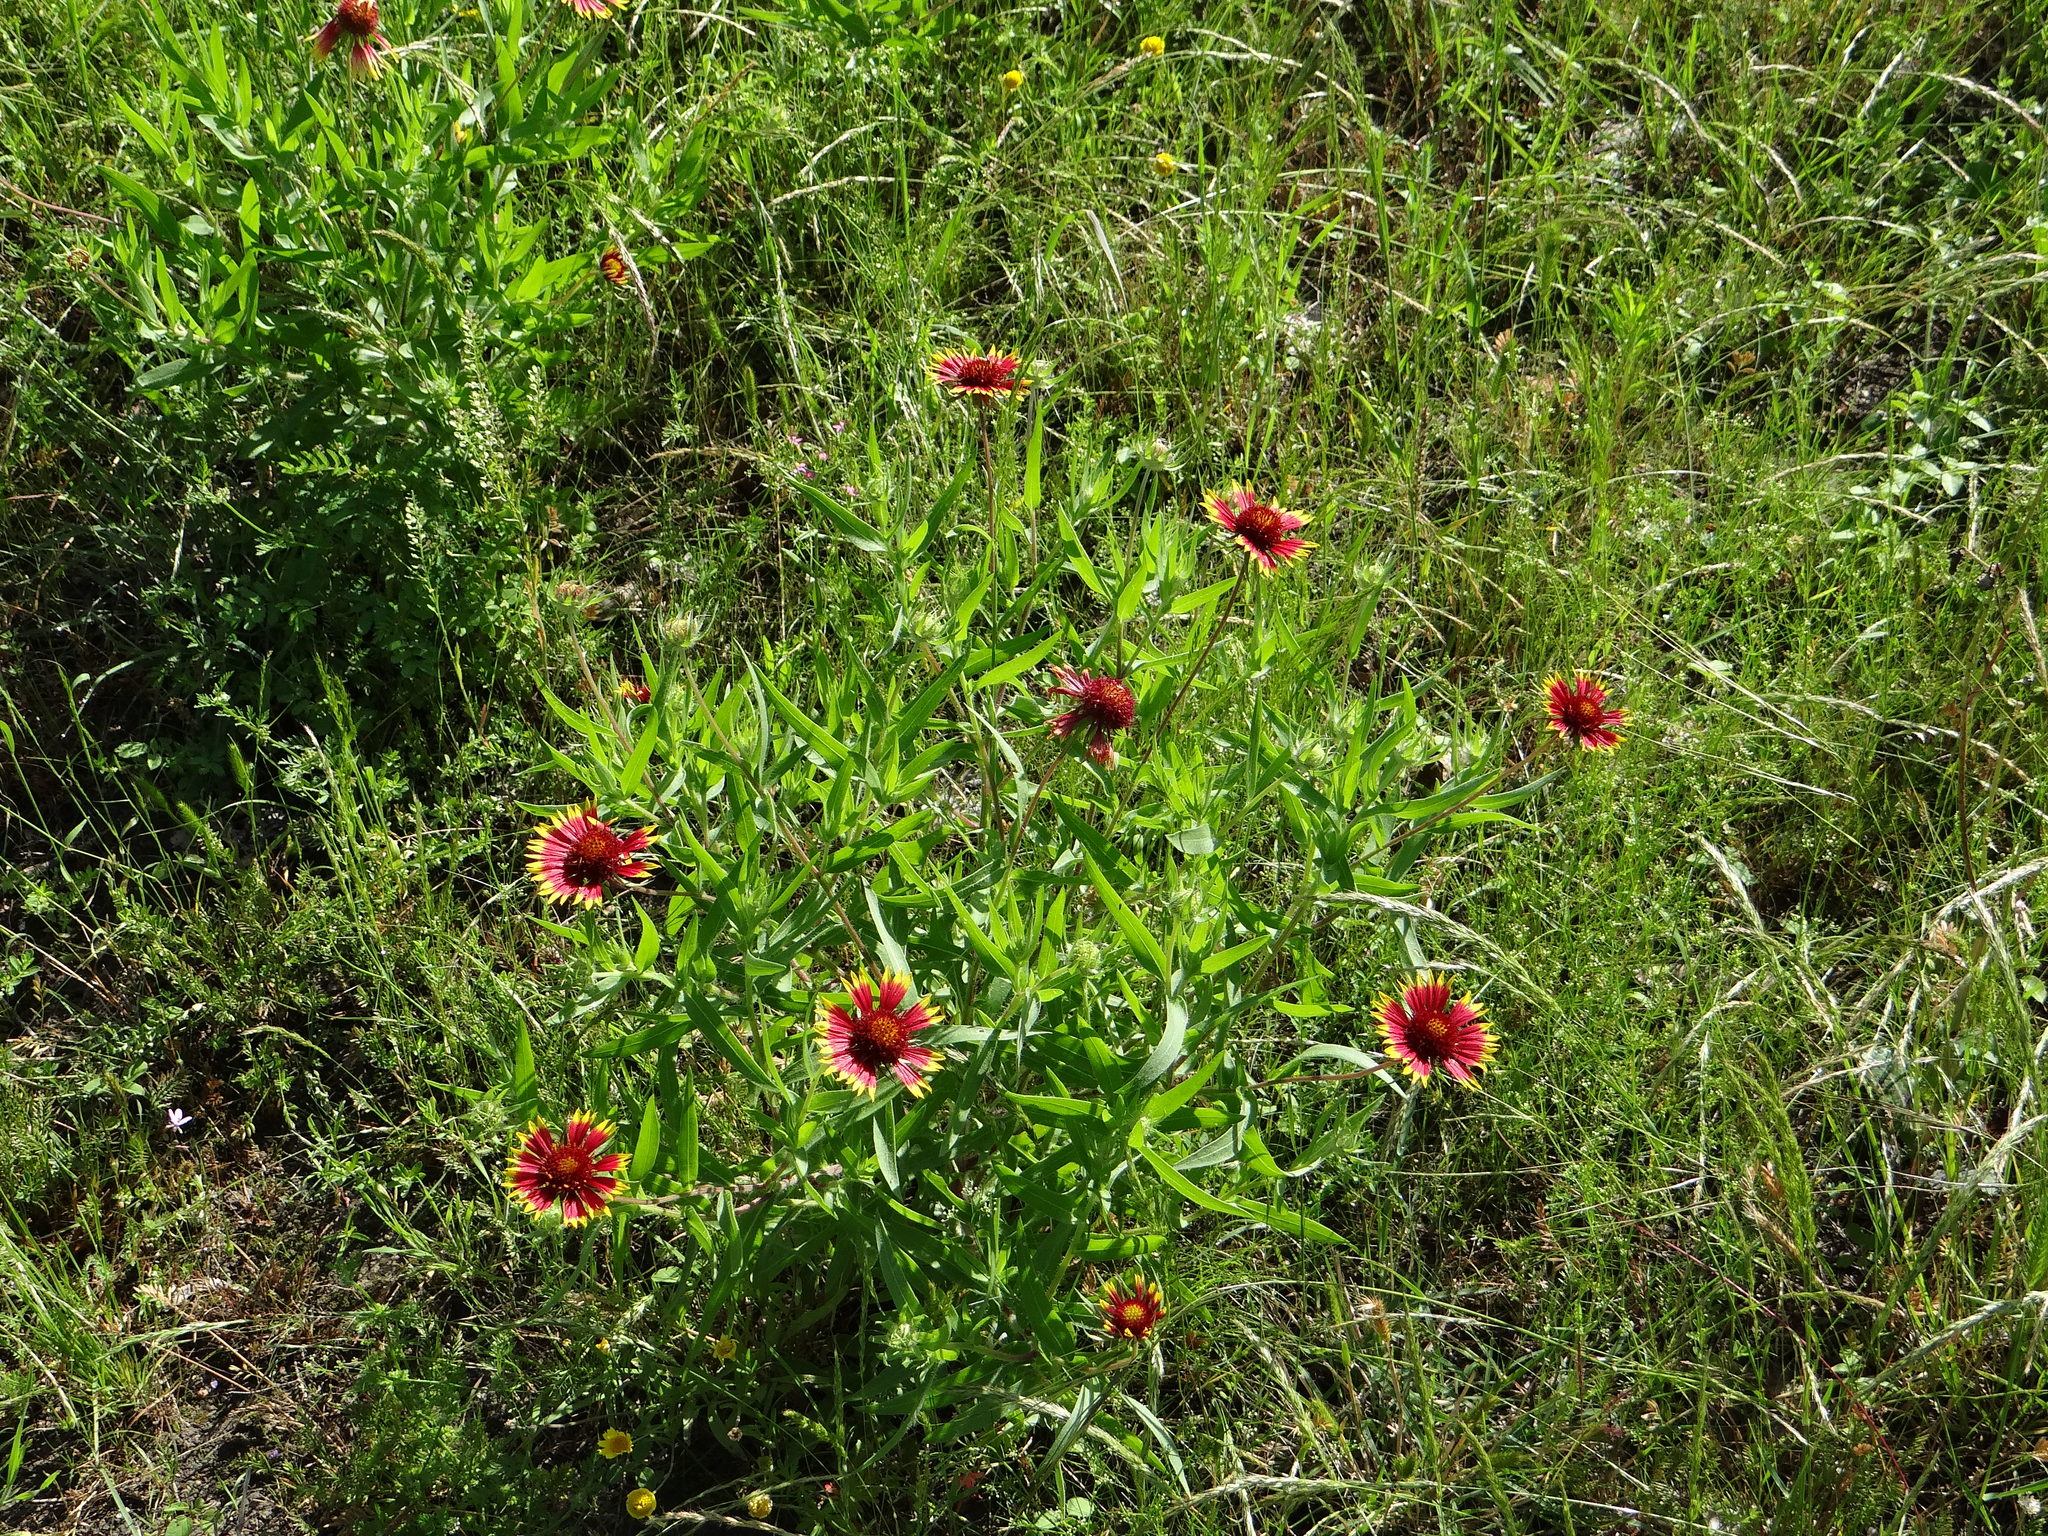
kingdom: Plantae
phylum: Tracheophyta
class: Magnoliopsida
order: Asterales
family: Asteraceae
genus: Gaillardia
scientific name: Gaillardia pulchella
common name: Firewheel
